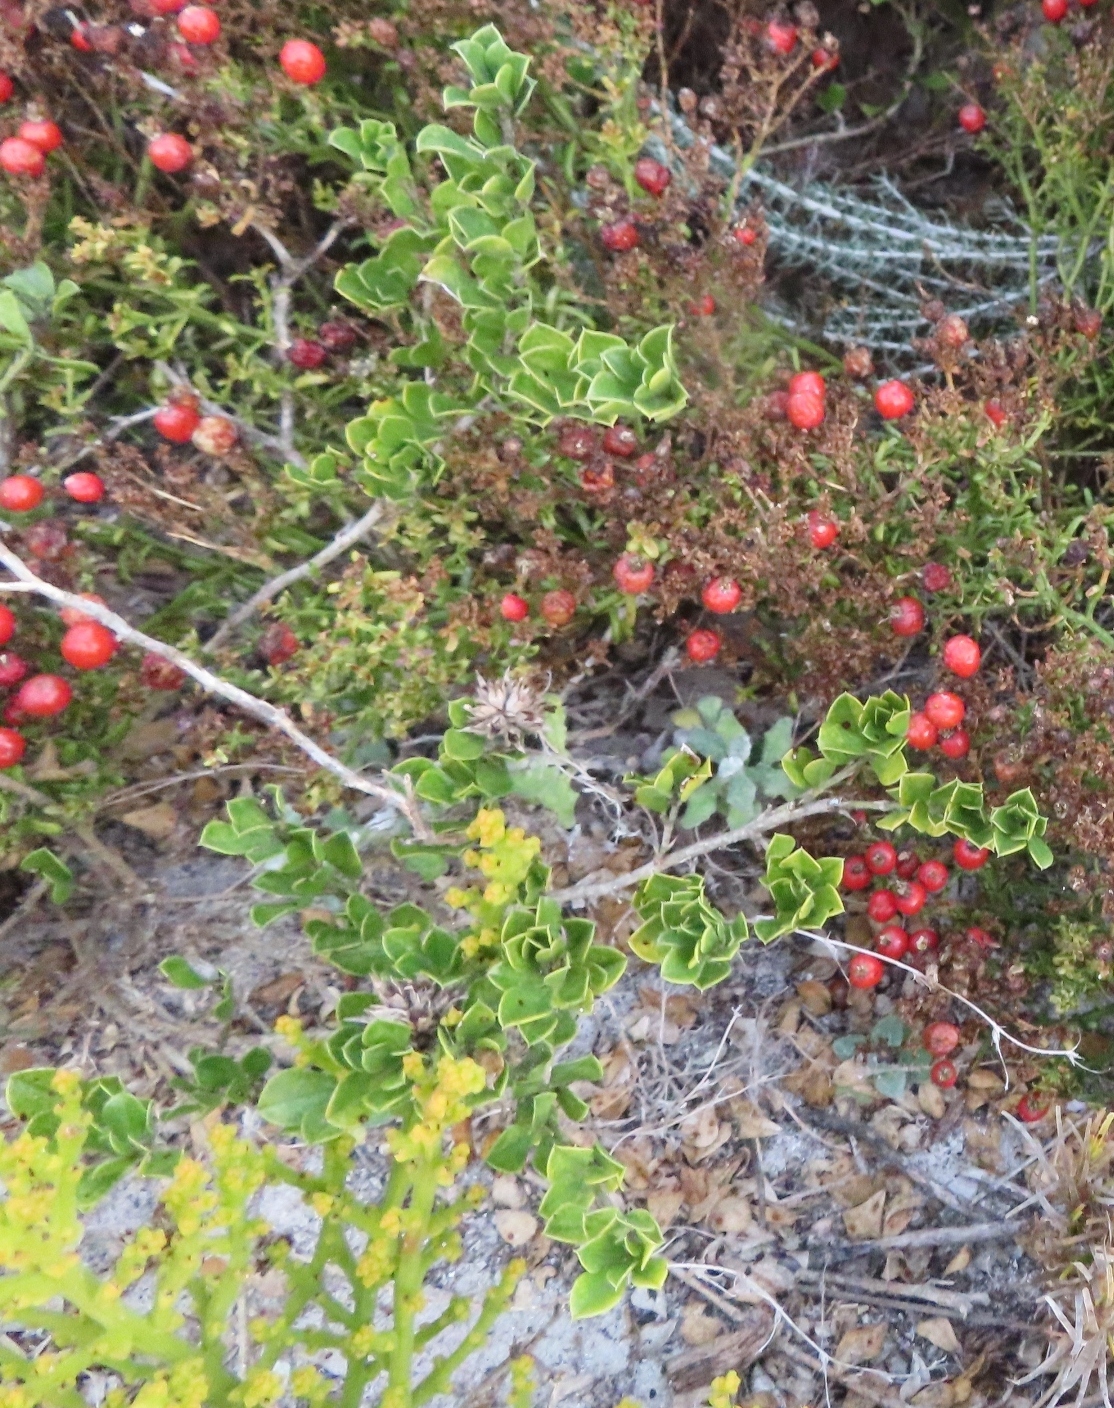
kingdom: Plantae
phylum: Tracheophyta
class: Magnoliopsida
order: Gentianales
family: Gentianaceae
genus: Chironia
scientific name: Chironia baccifera
